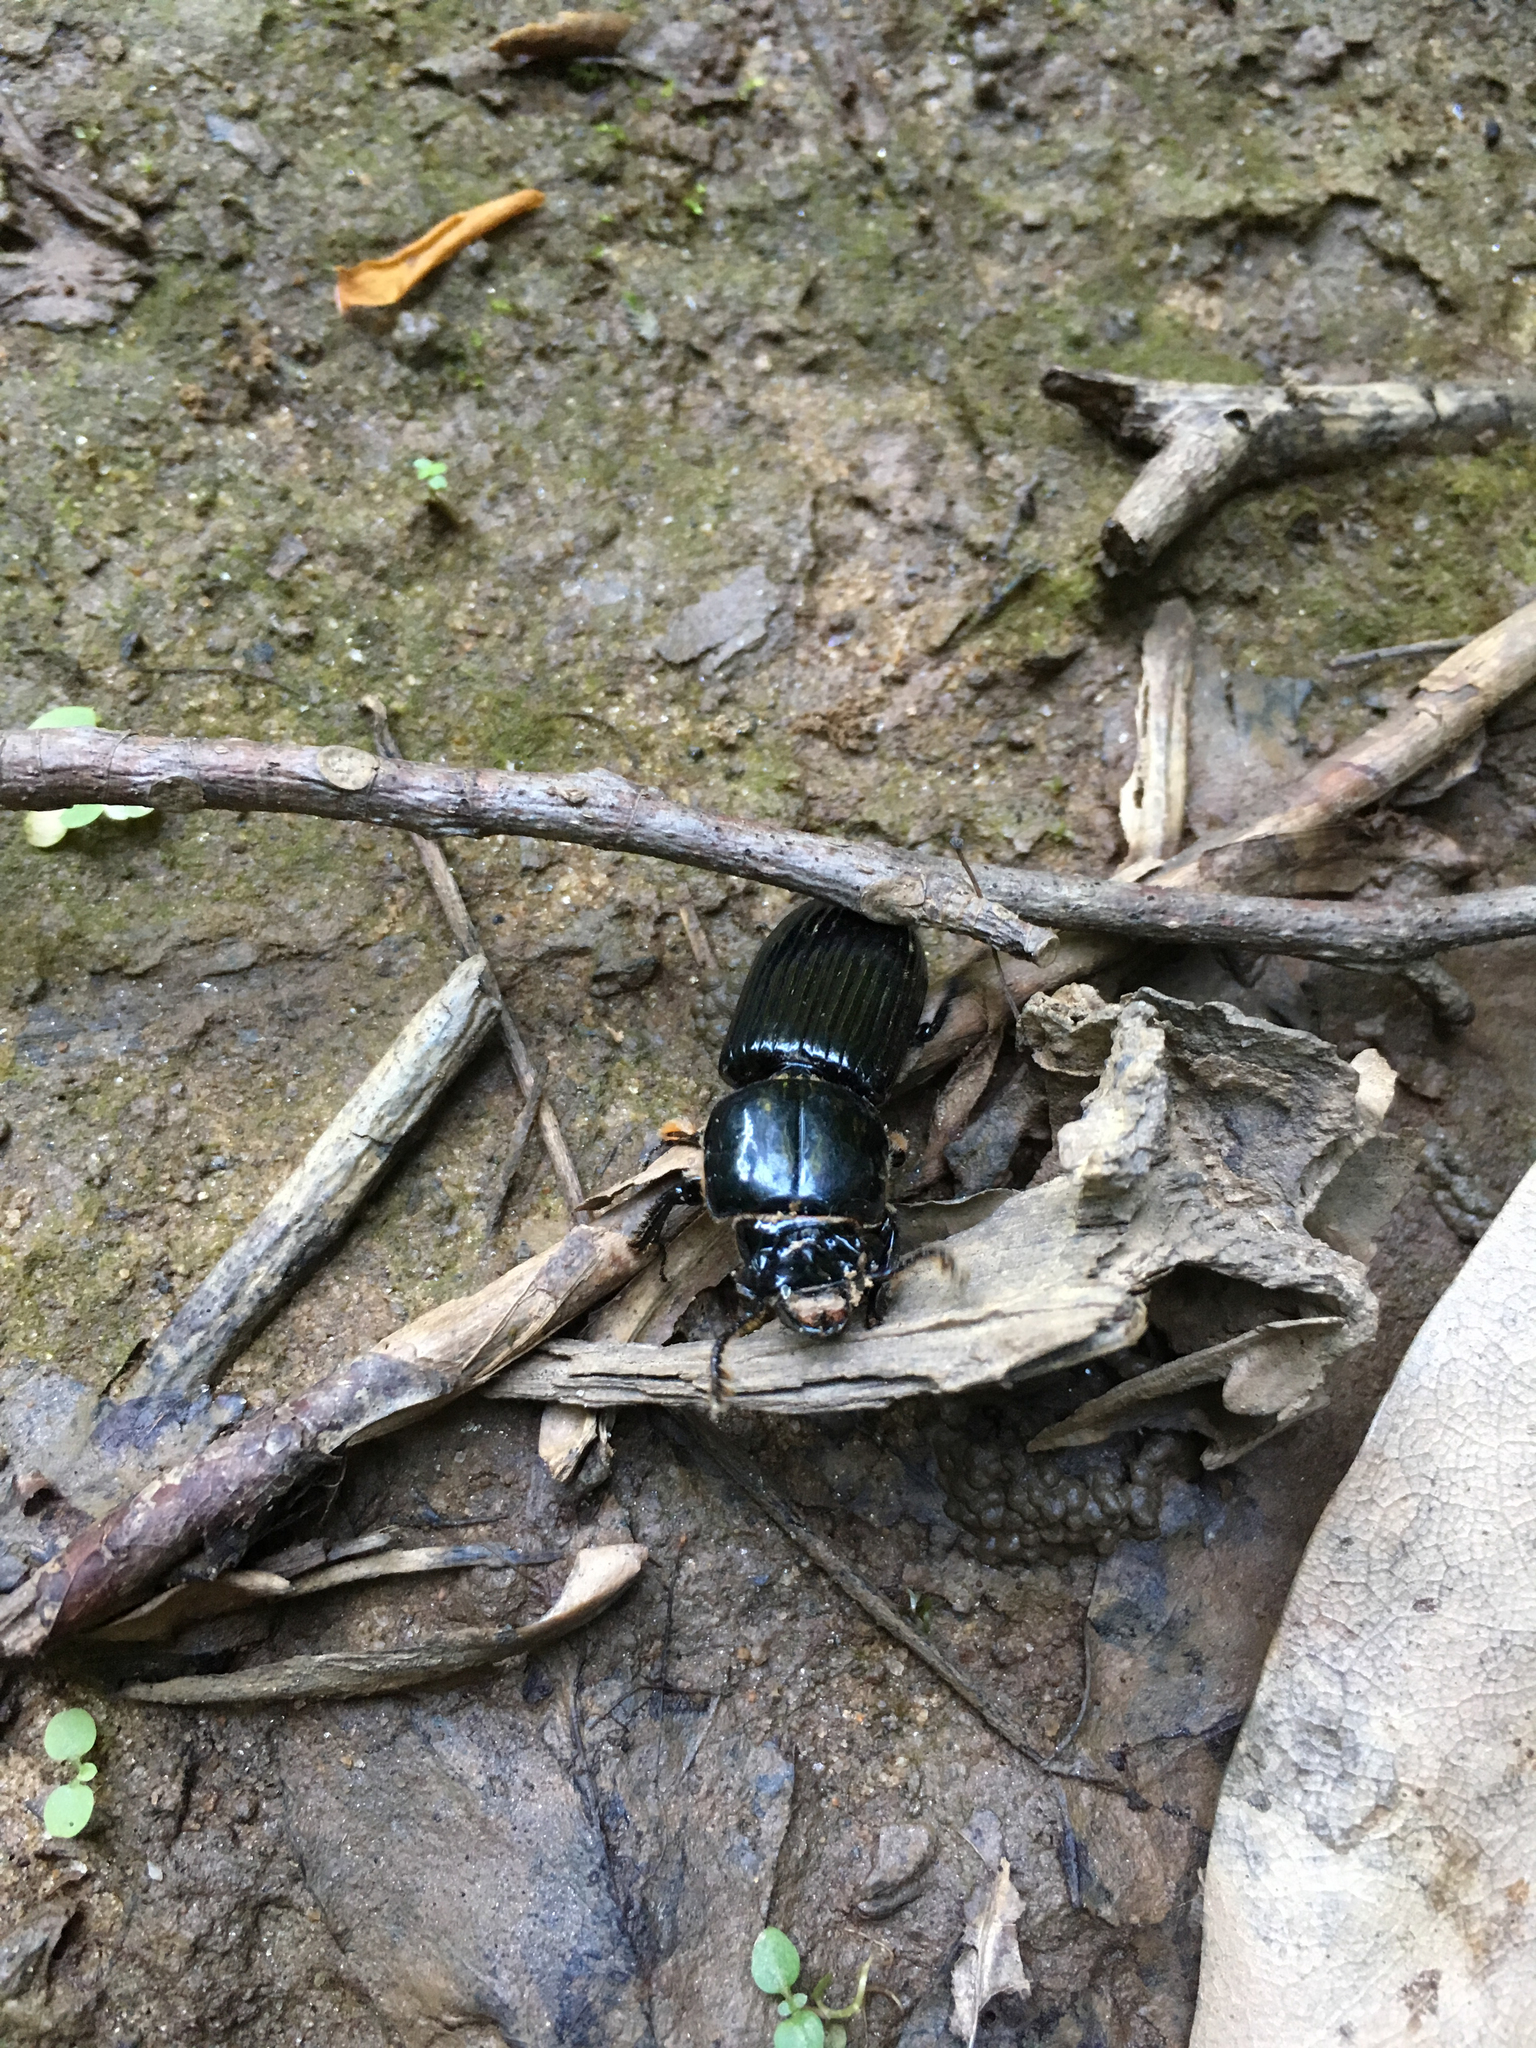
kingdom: Animalia
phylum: Arthropoda
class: Insecta
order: Coleoptera
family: Passalidae
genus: Odontotaenius
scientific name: Odontotaenius disjunctus
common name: Patent leather beetle
